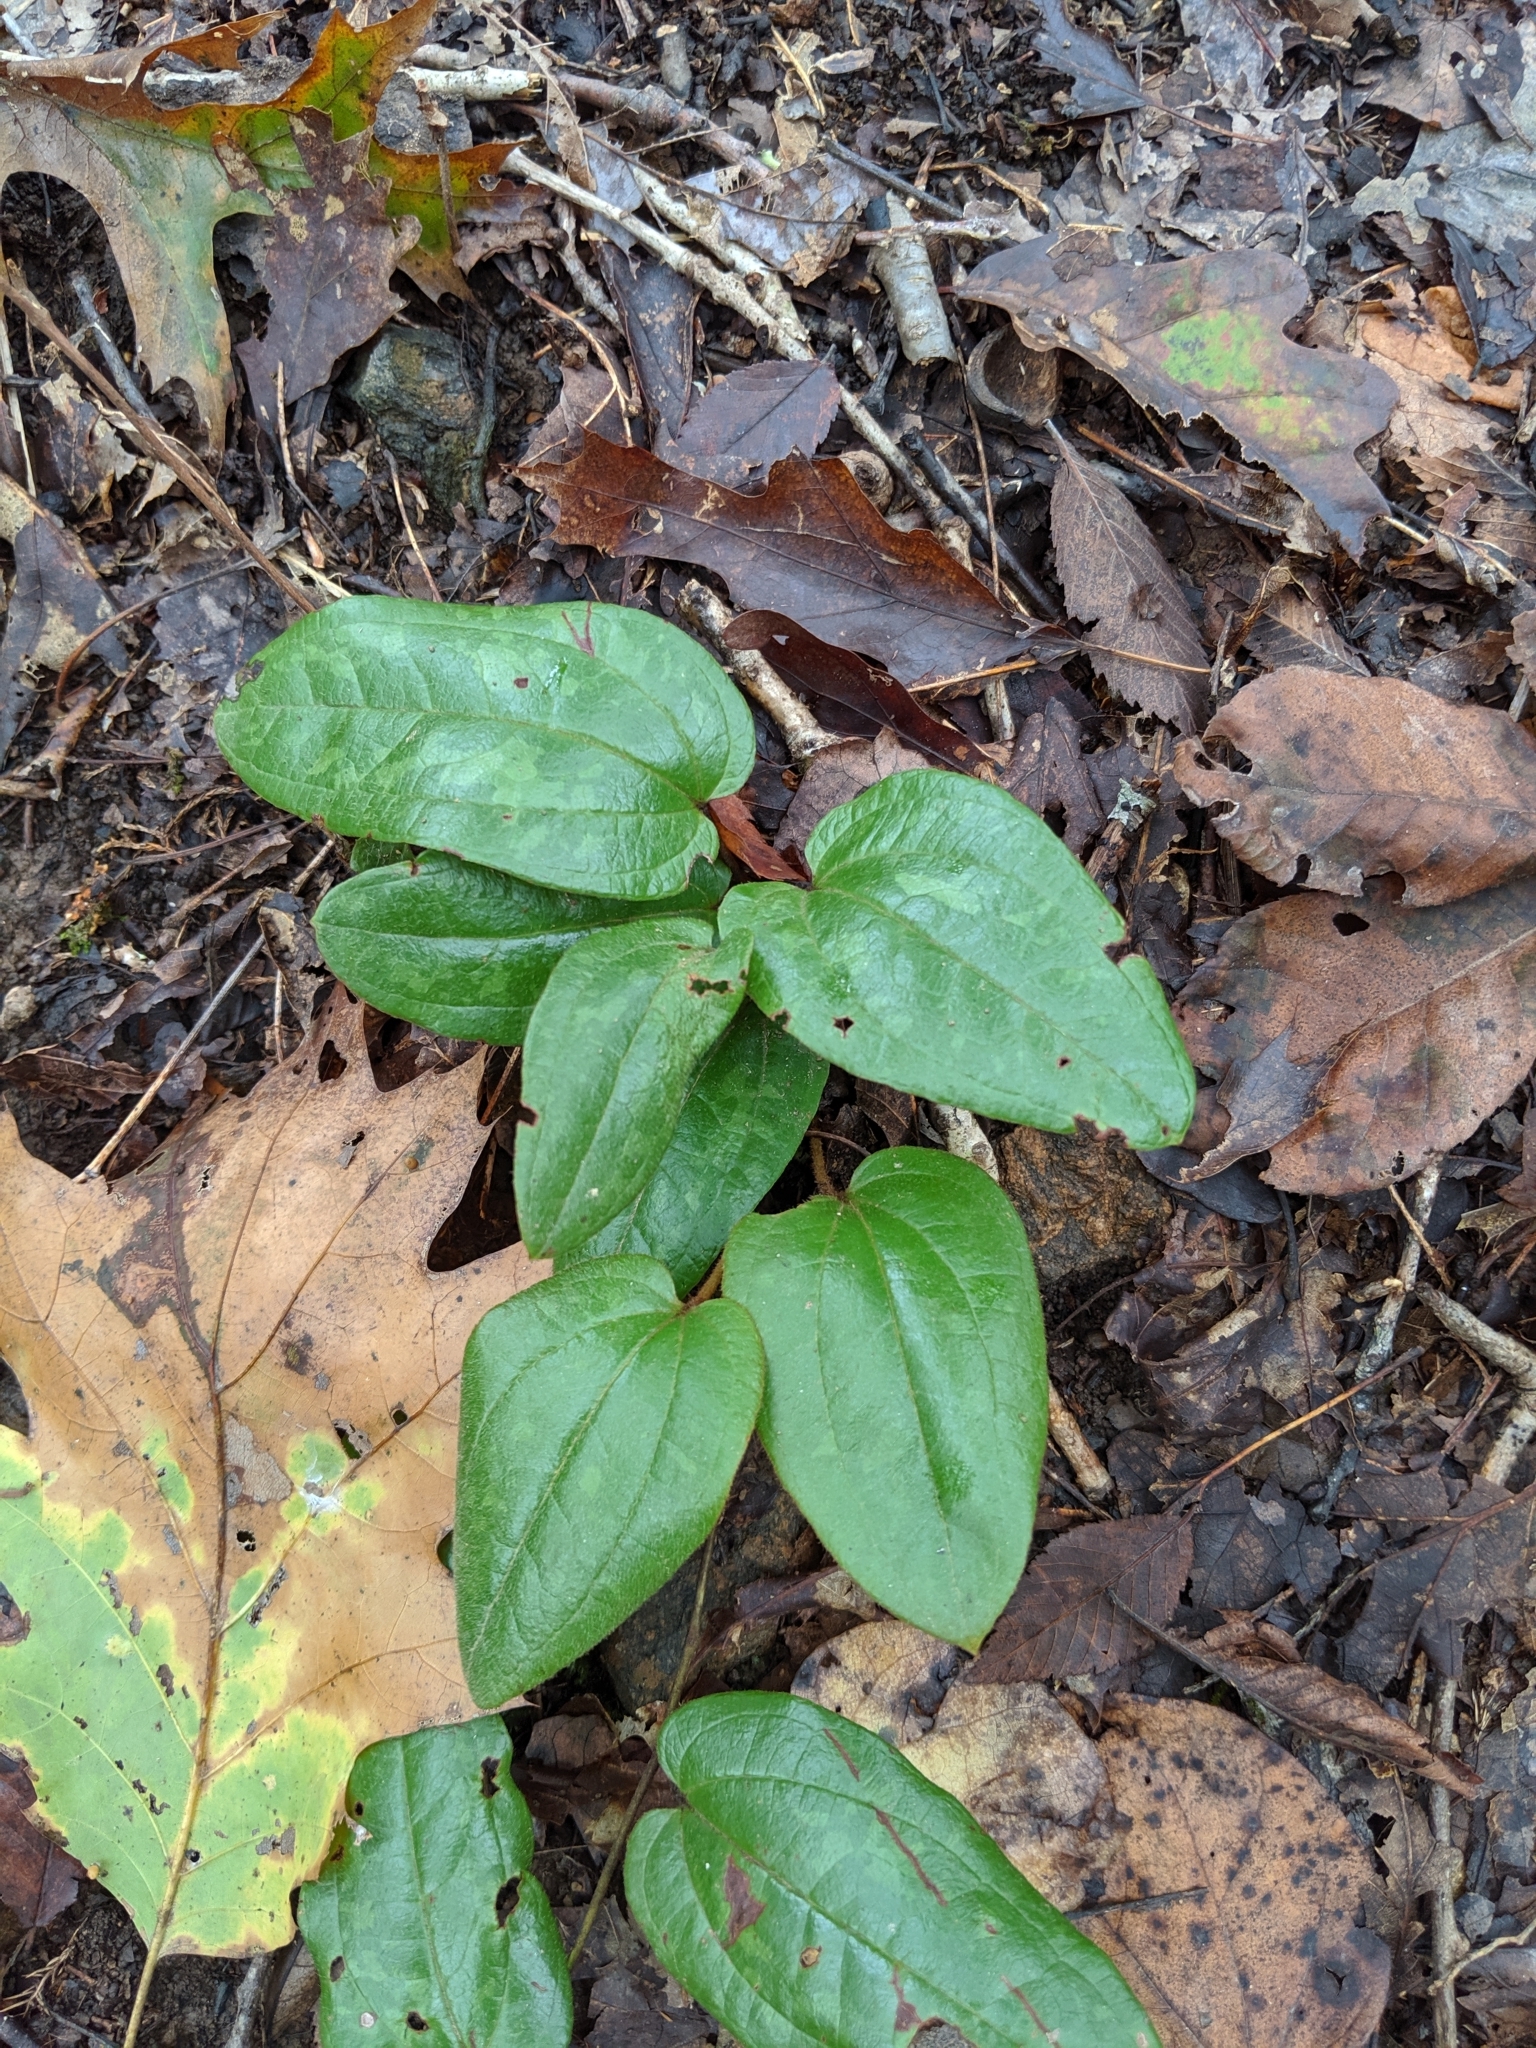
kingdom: Plantae
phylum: Tracheophyta
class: Liliopsida
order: Liliales
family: Smilacaceae
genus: Smilax
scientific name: Smilax pumila
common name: Sarsaparilla-vine
